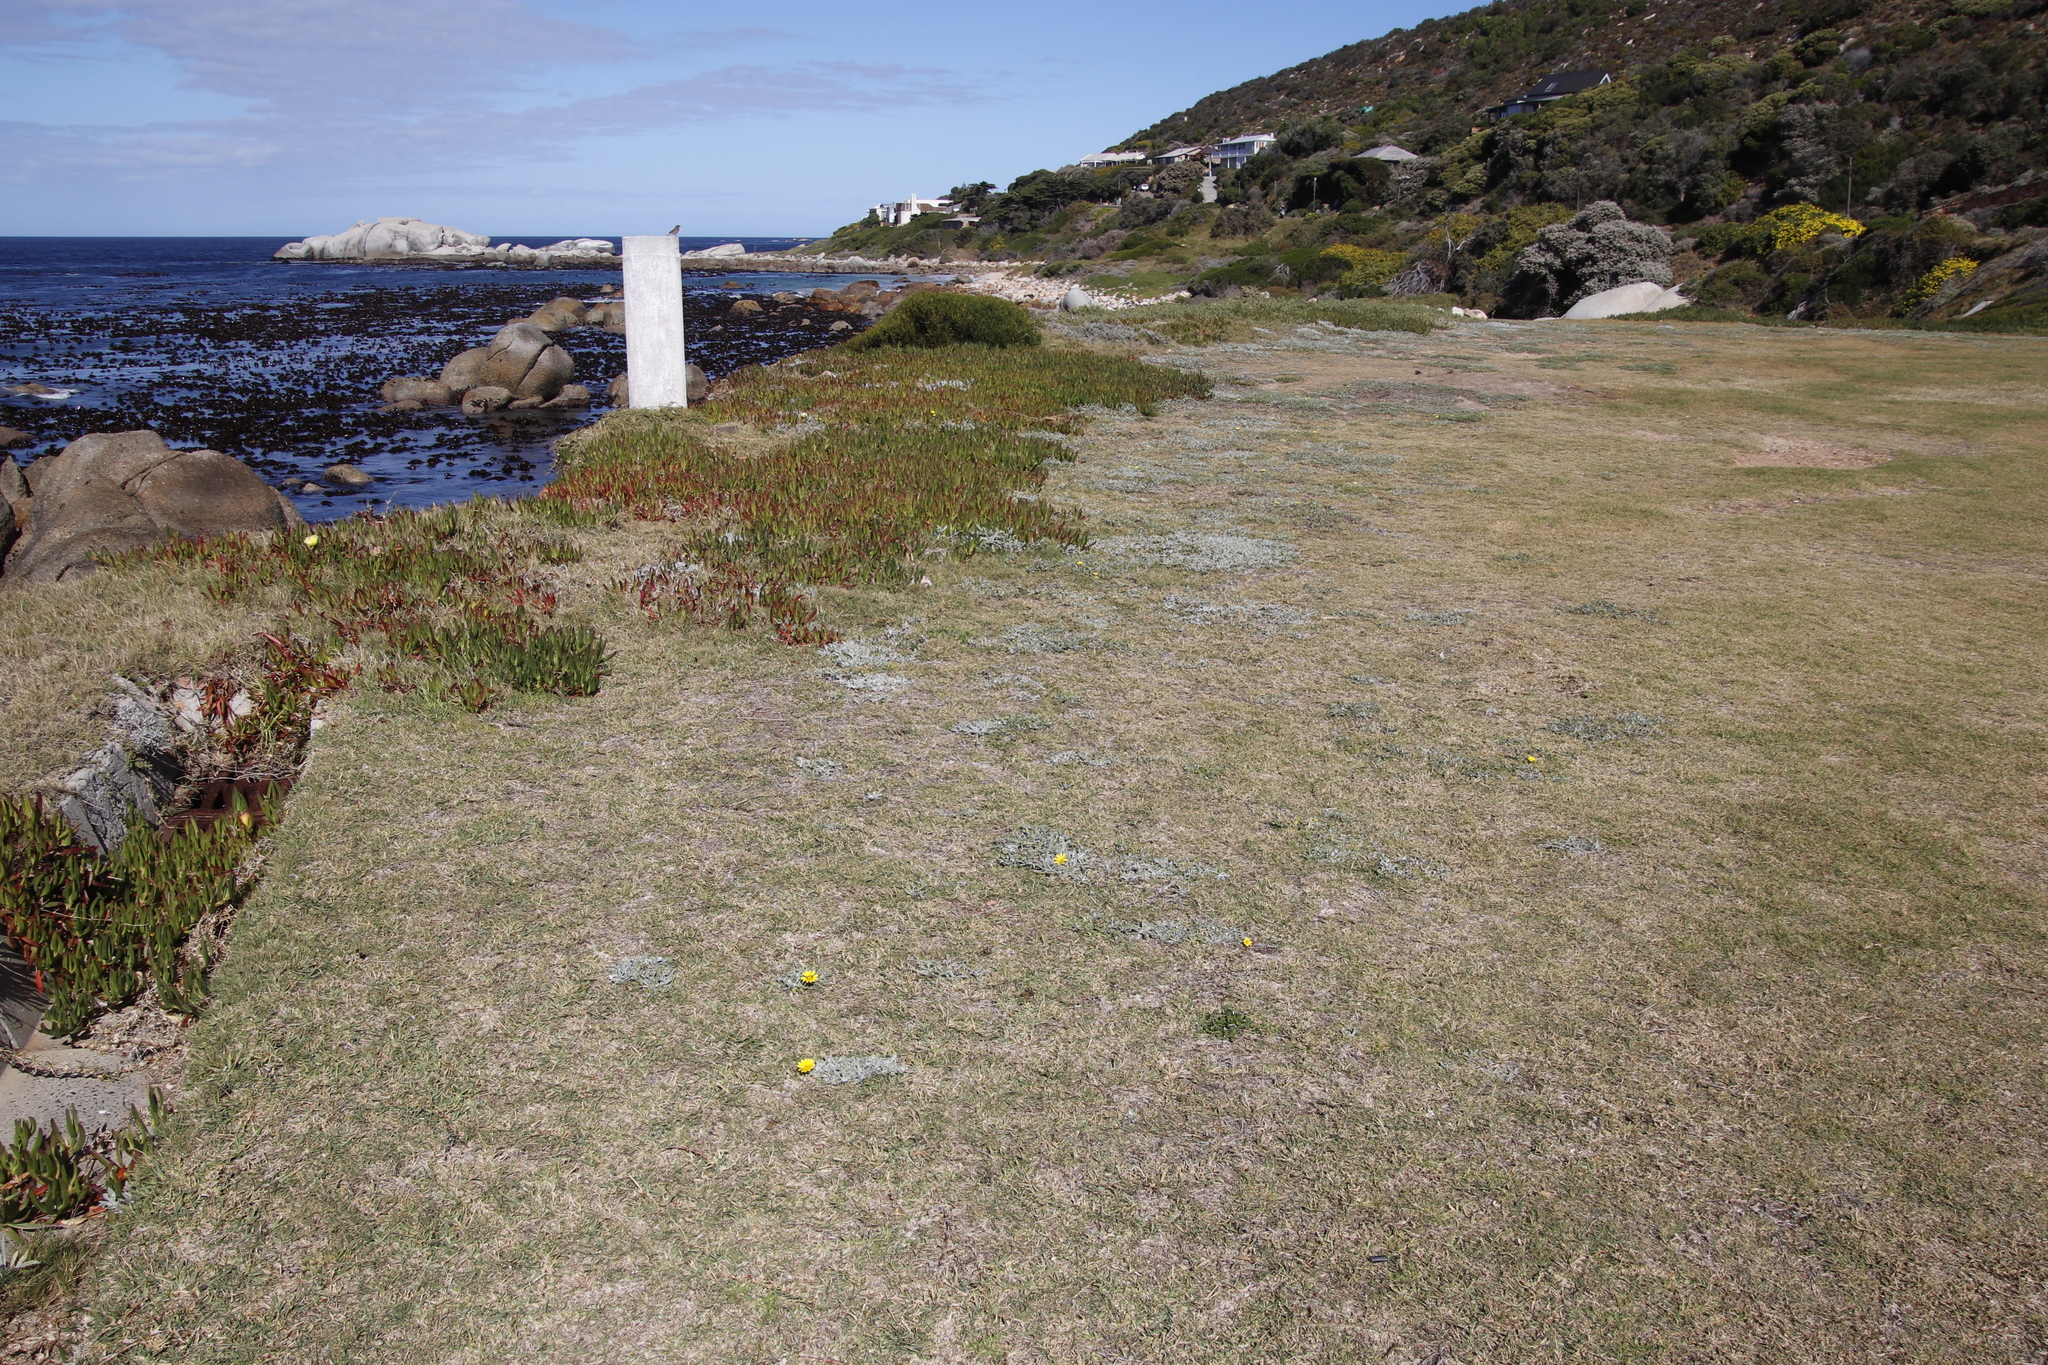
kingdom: Plantae
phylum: Tracheophyta
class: Magnoliopsida
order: Asterales
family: Asteraceae
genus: Gazania
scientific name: Gazania rigens
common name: Treasureflower
